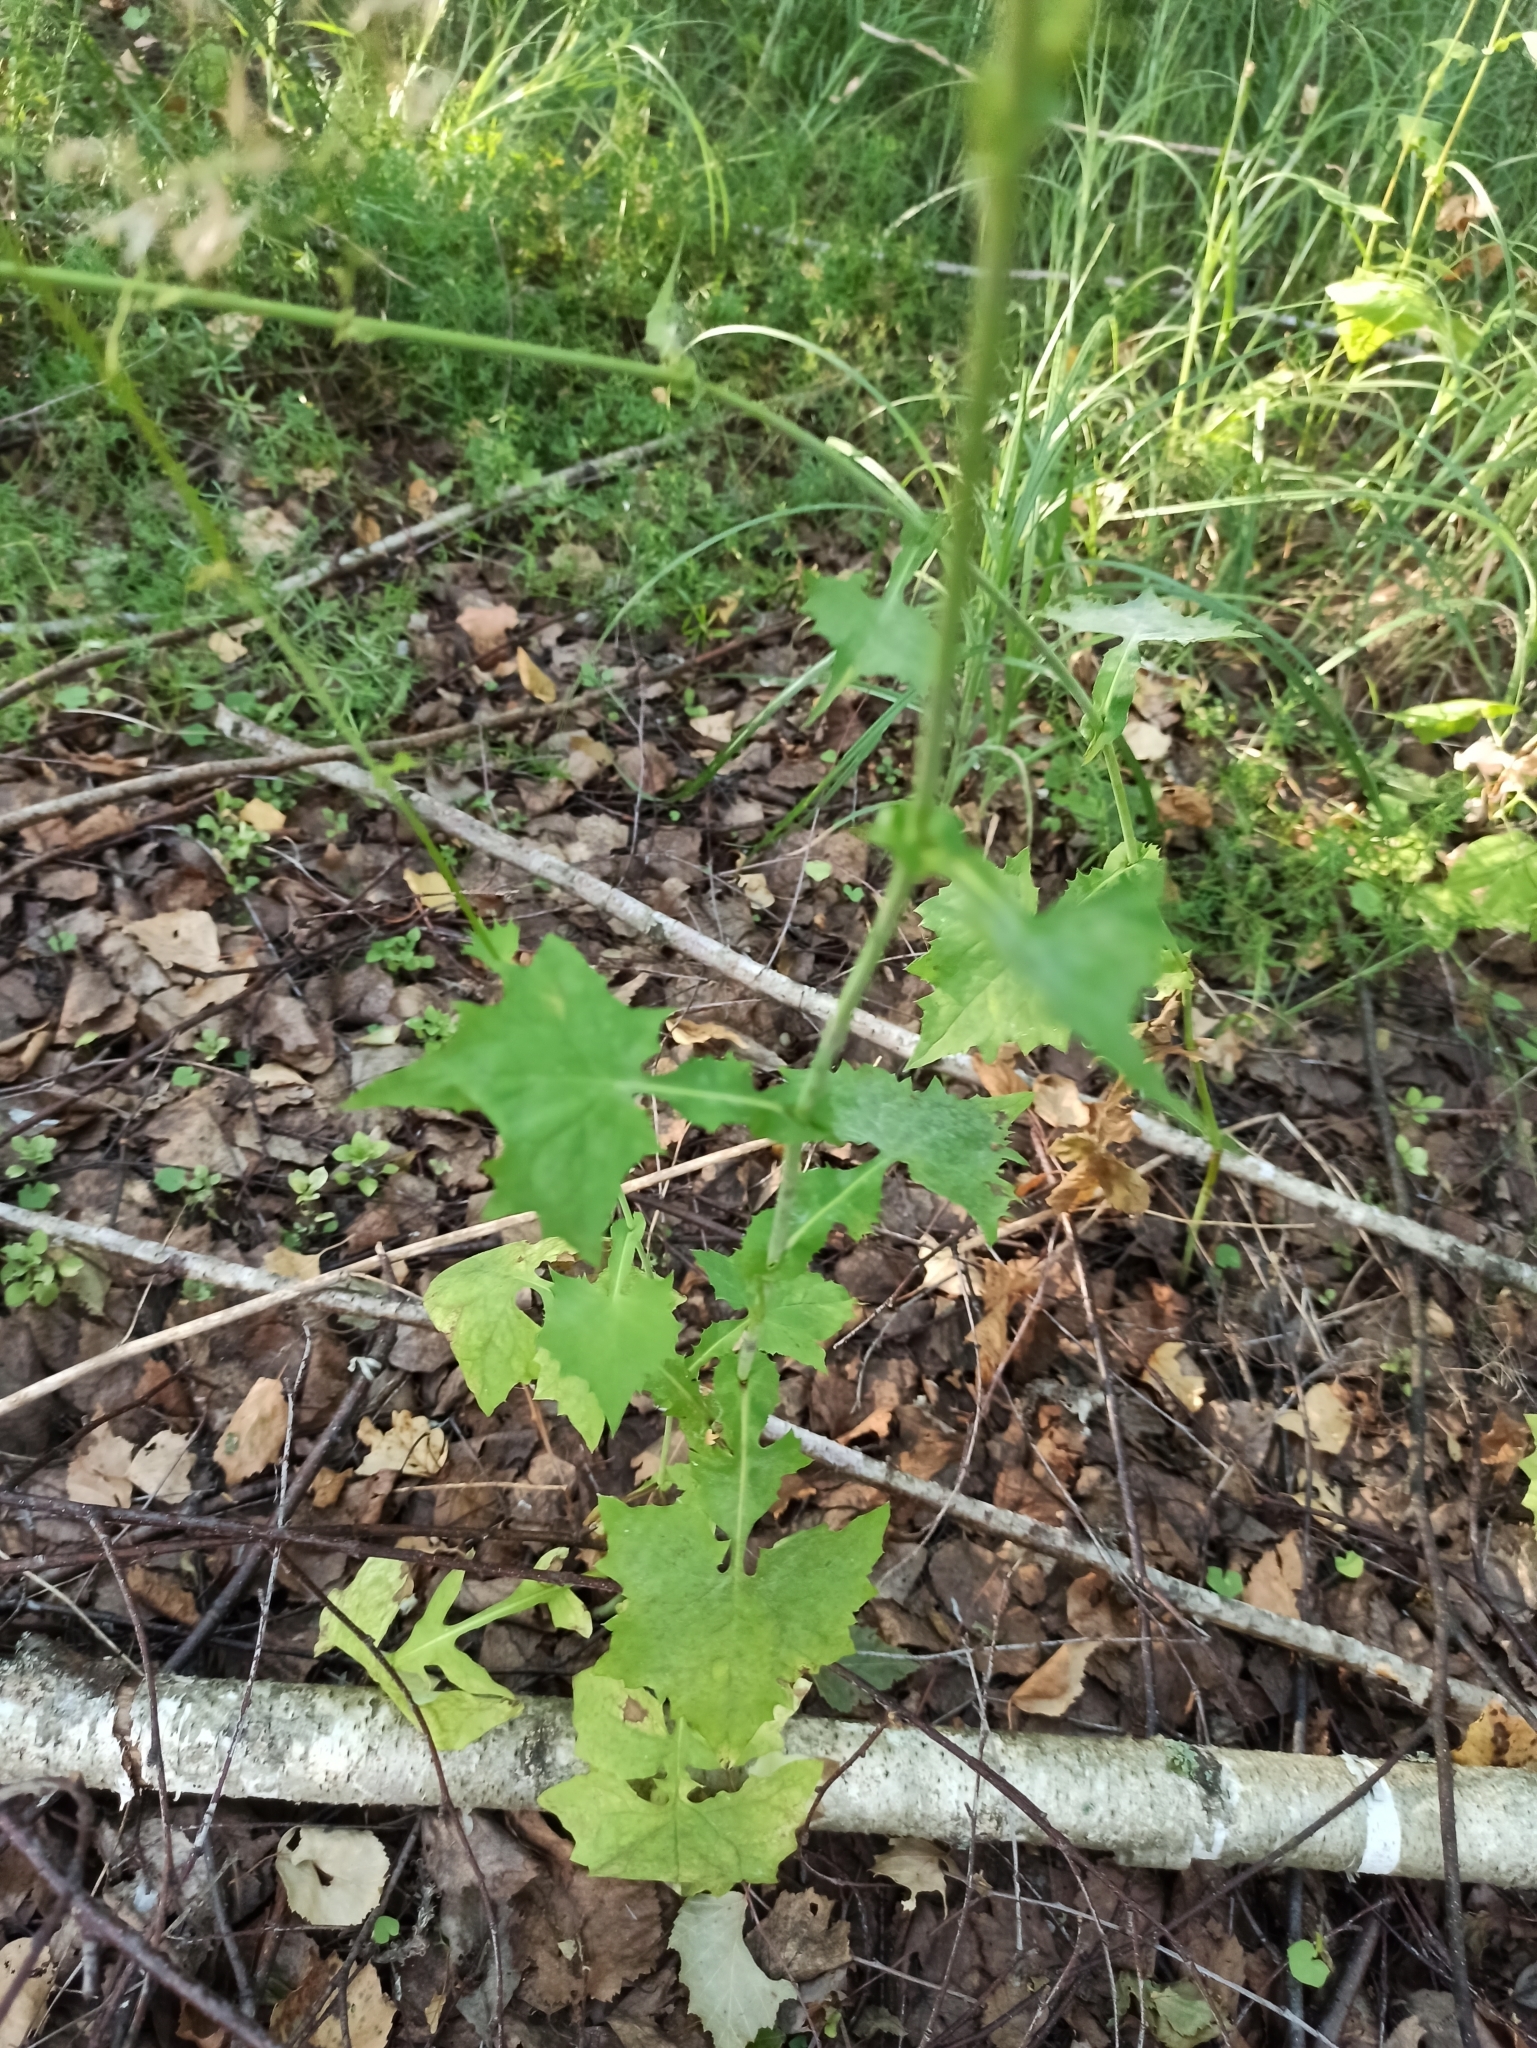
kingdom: Plantae
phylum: Tracheophyta
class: Magnoliopsida
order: Asterales
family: Asteraceae
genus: Mycelis
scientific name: Mycelis muralis
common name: Wall lettuce
